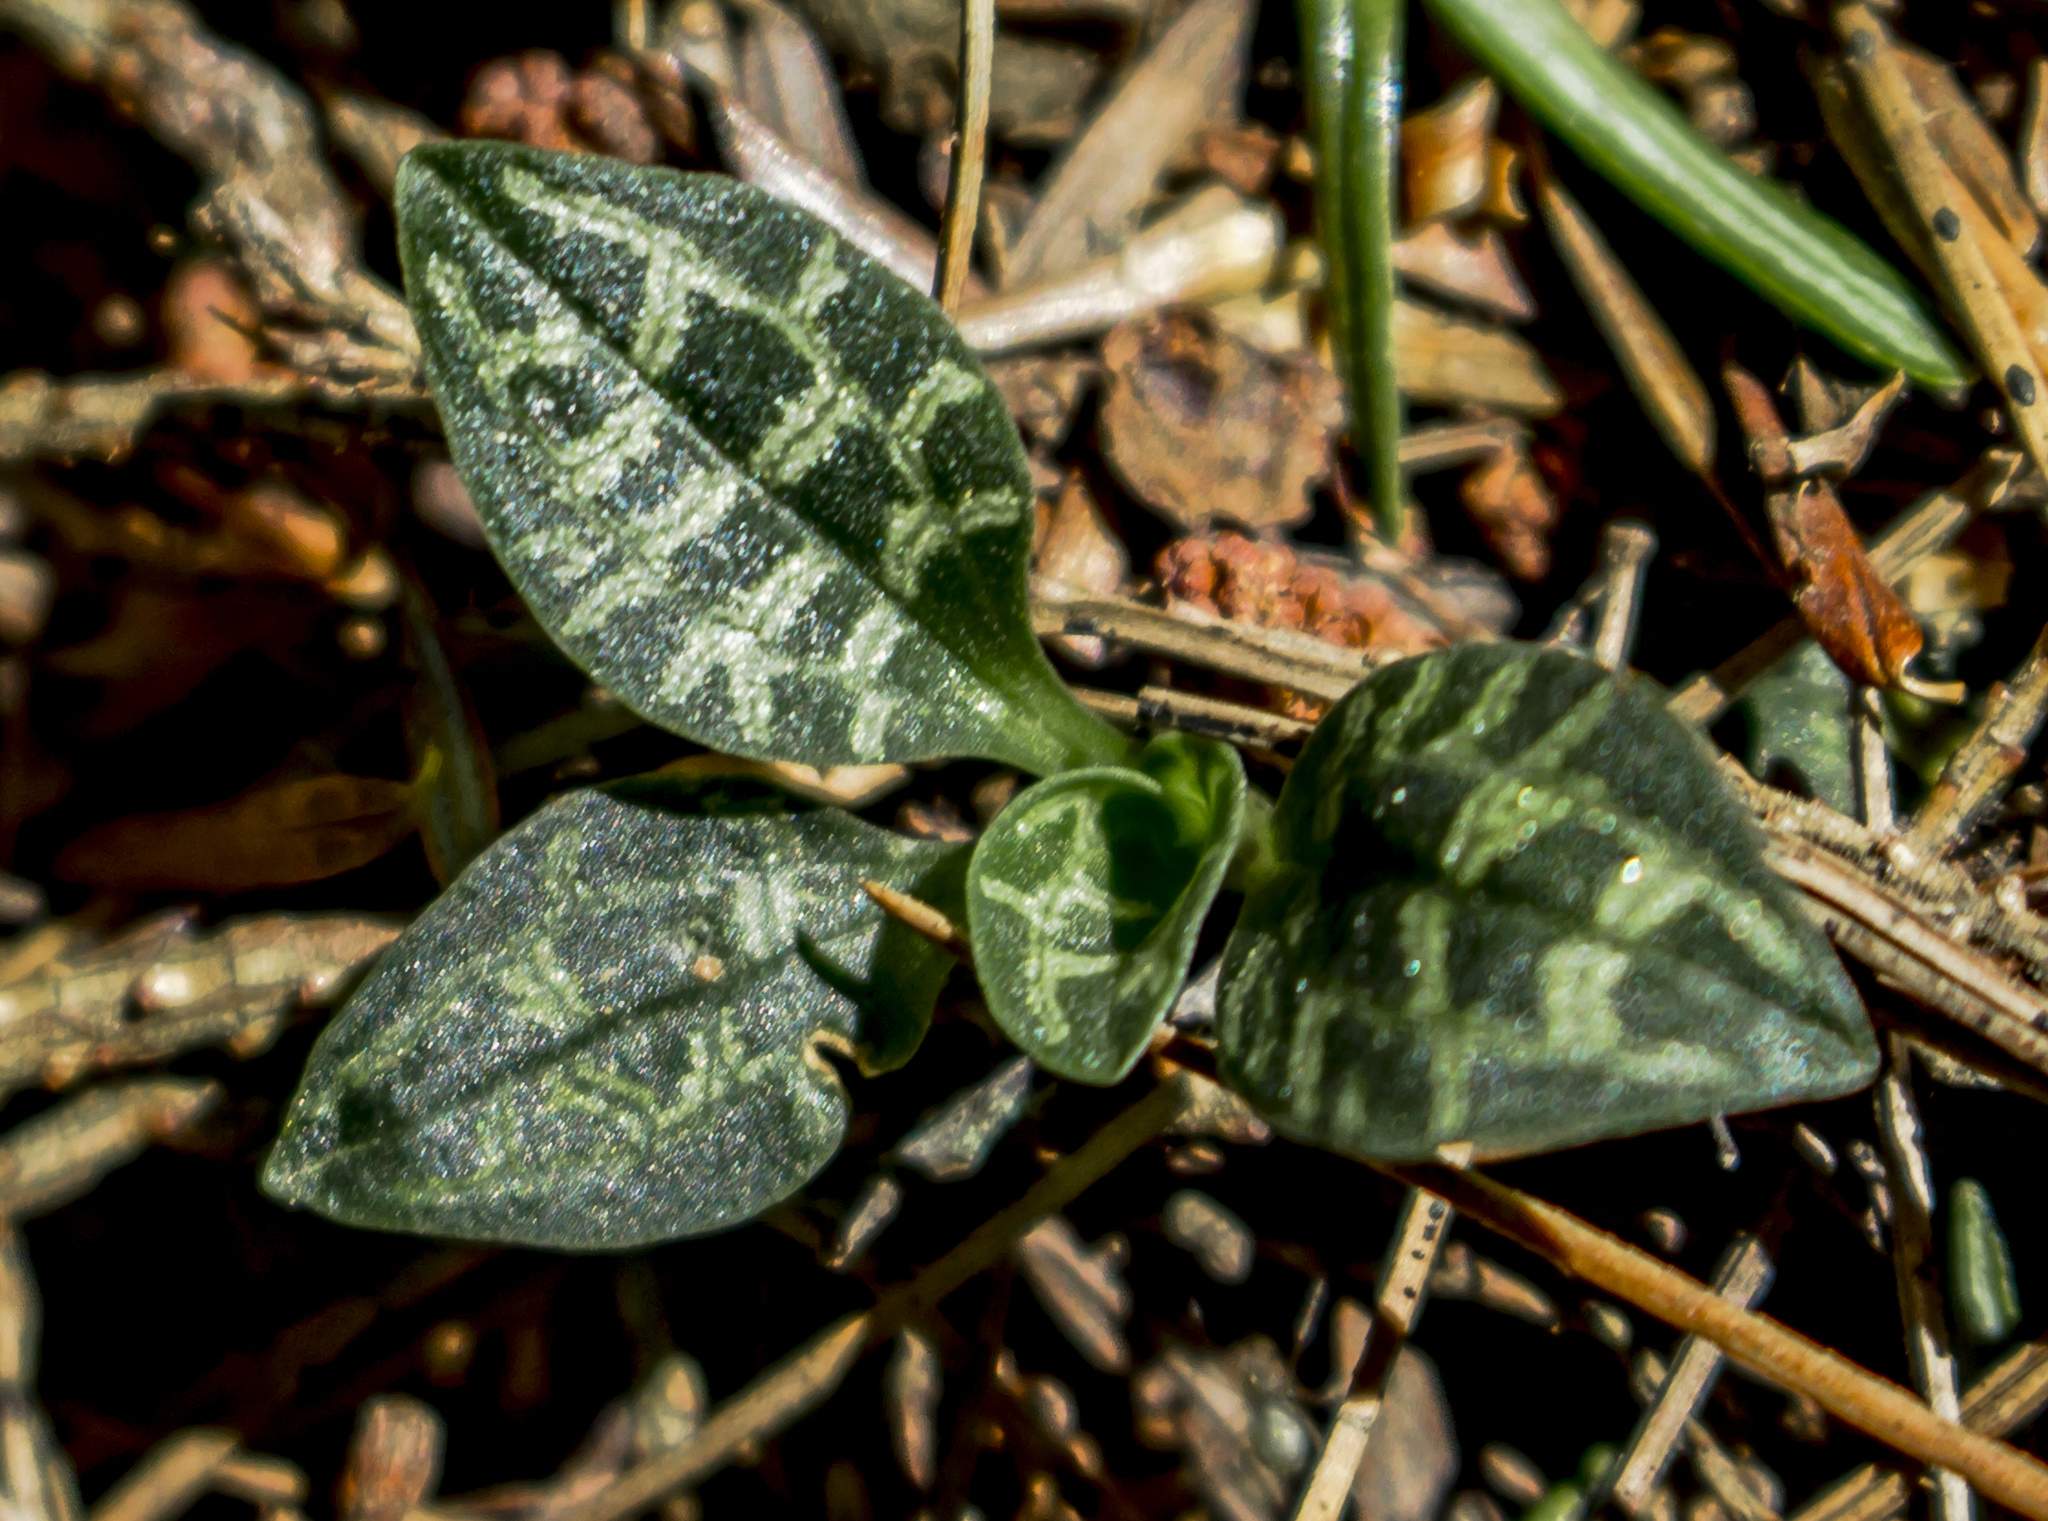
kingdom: Plantae
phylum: Tracheophyta
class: Liliopsida
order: Asparagales
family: Orchidaceae
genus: Goodyera
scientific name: Goodyera repens
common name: Creeping lady's-tresses
